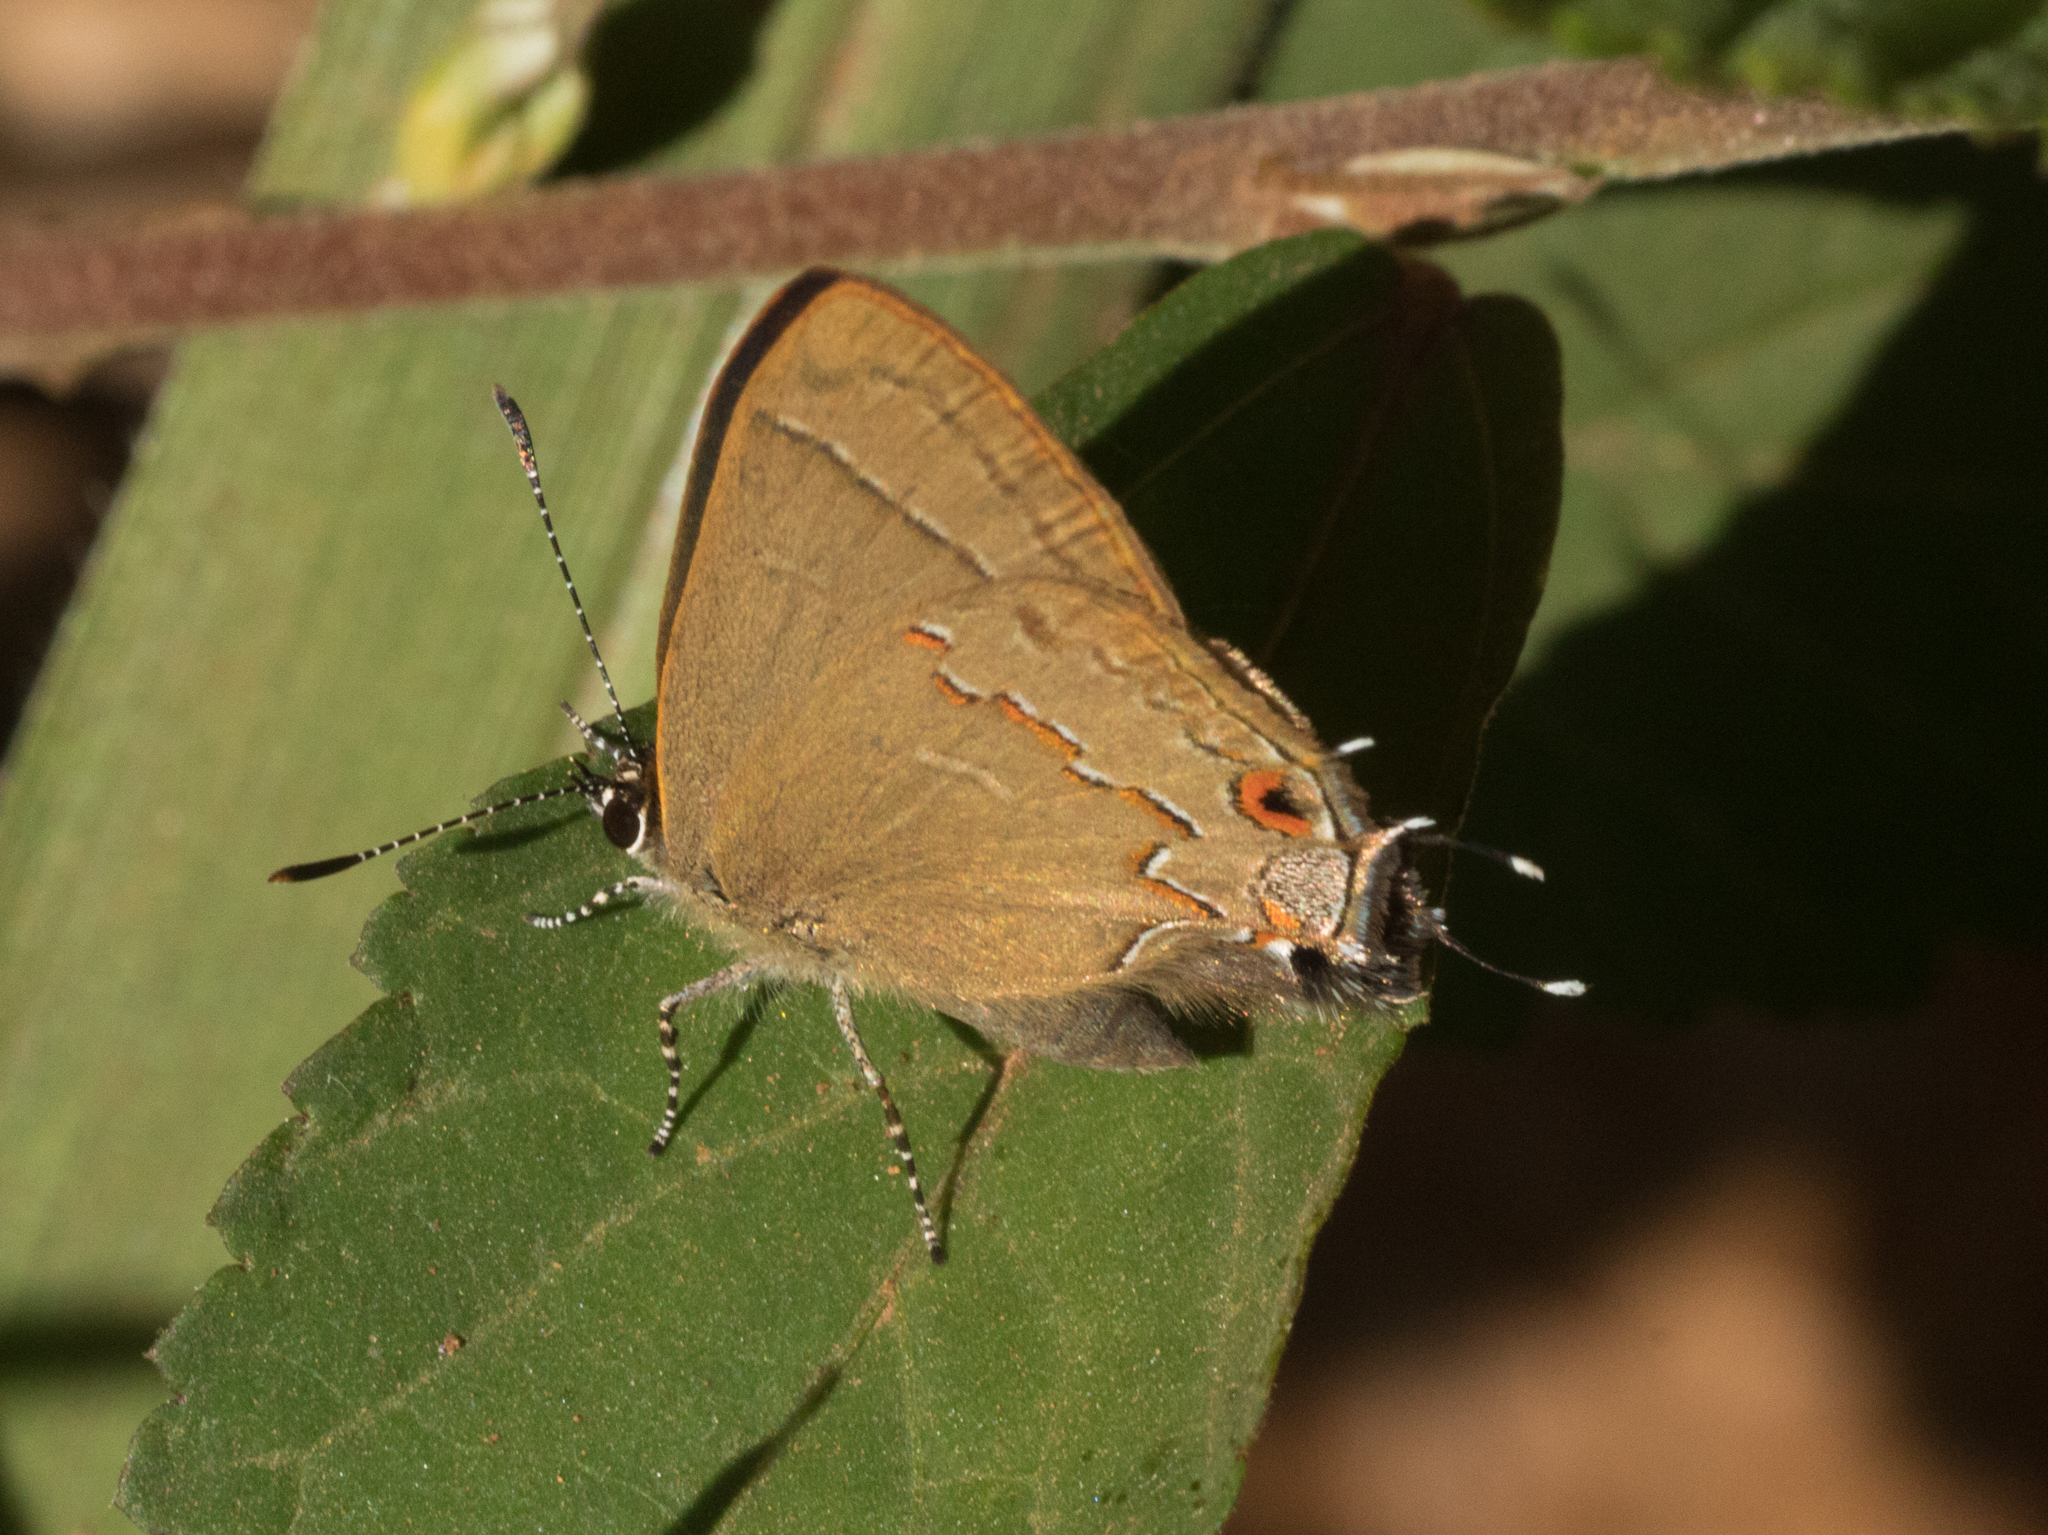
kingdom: Animalia
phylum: Arthropoda
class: Insecta
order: Lepidoptera
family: Lycaenidae
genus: Arzecla
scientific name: Arzecla
